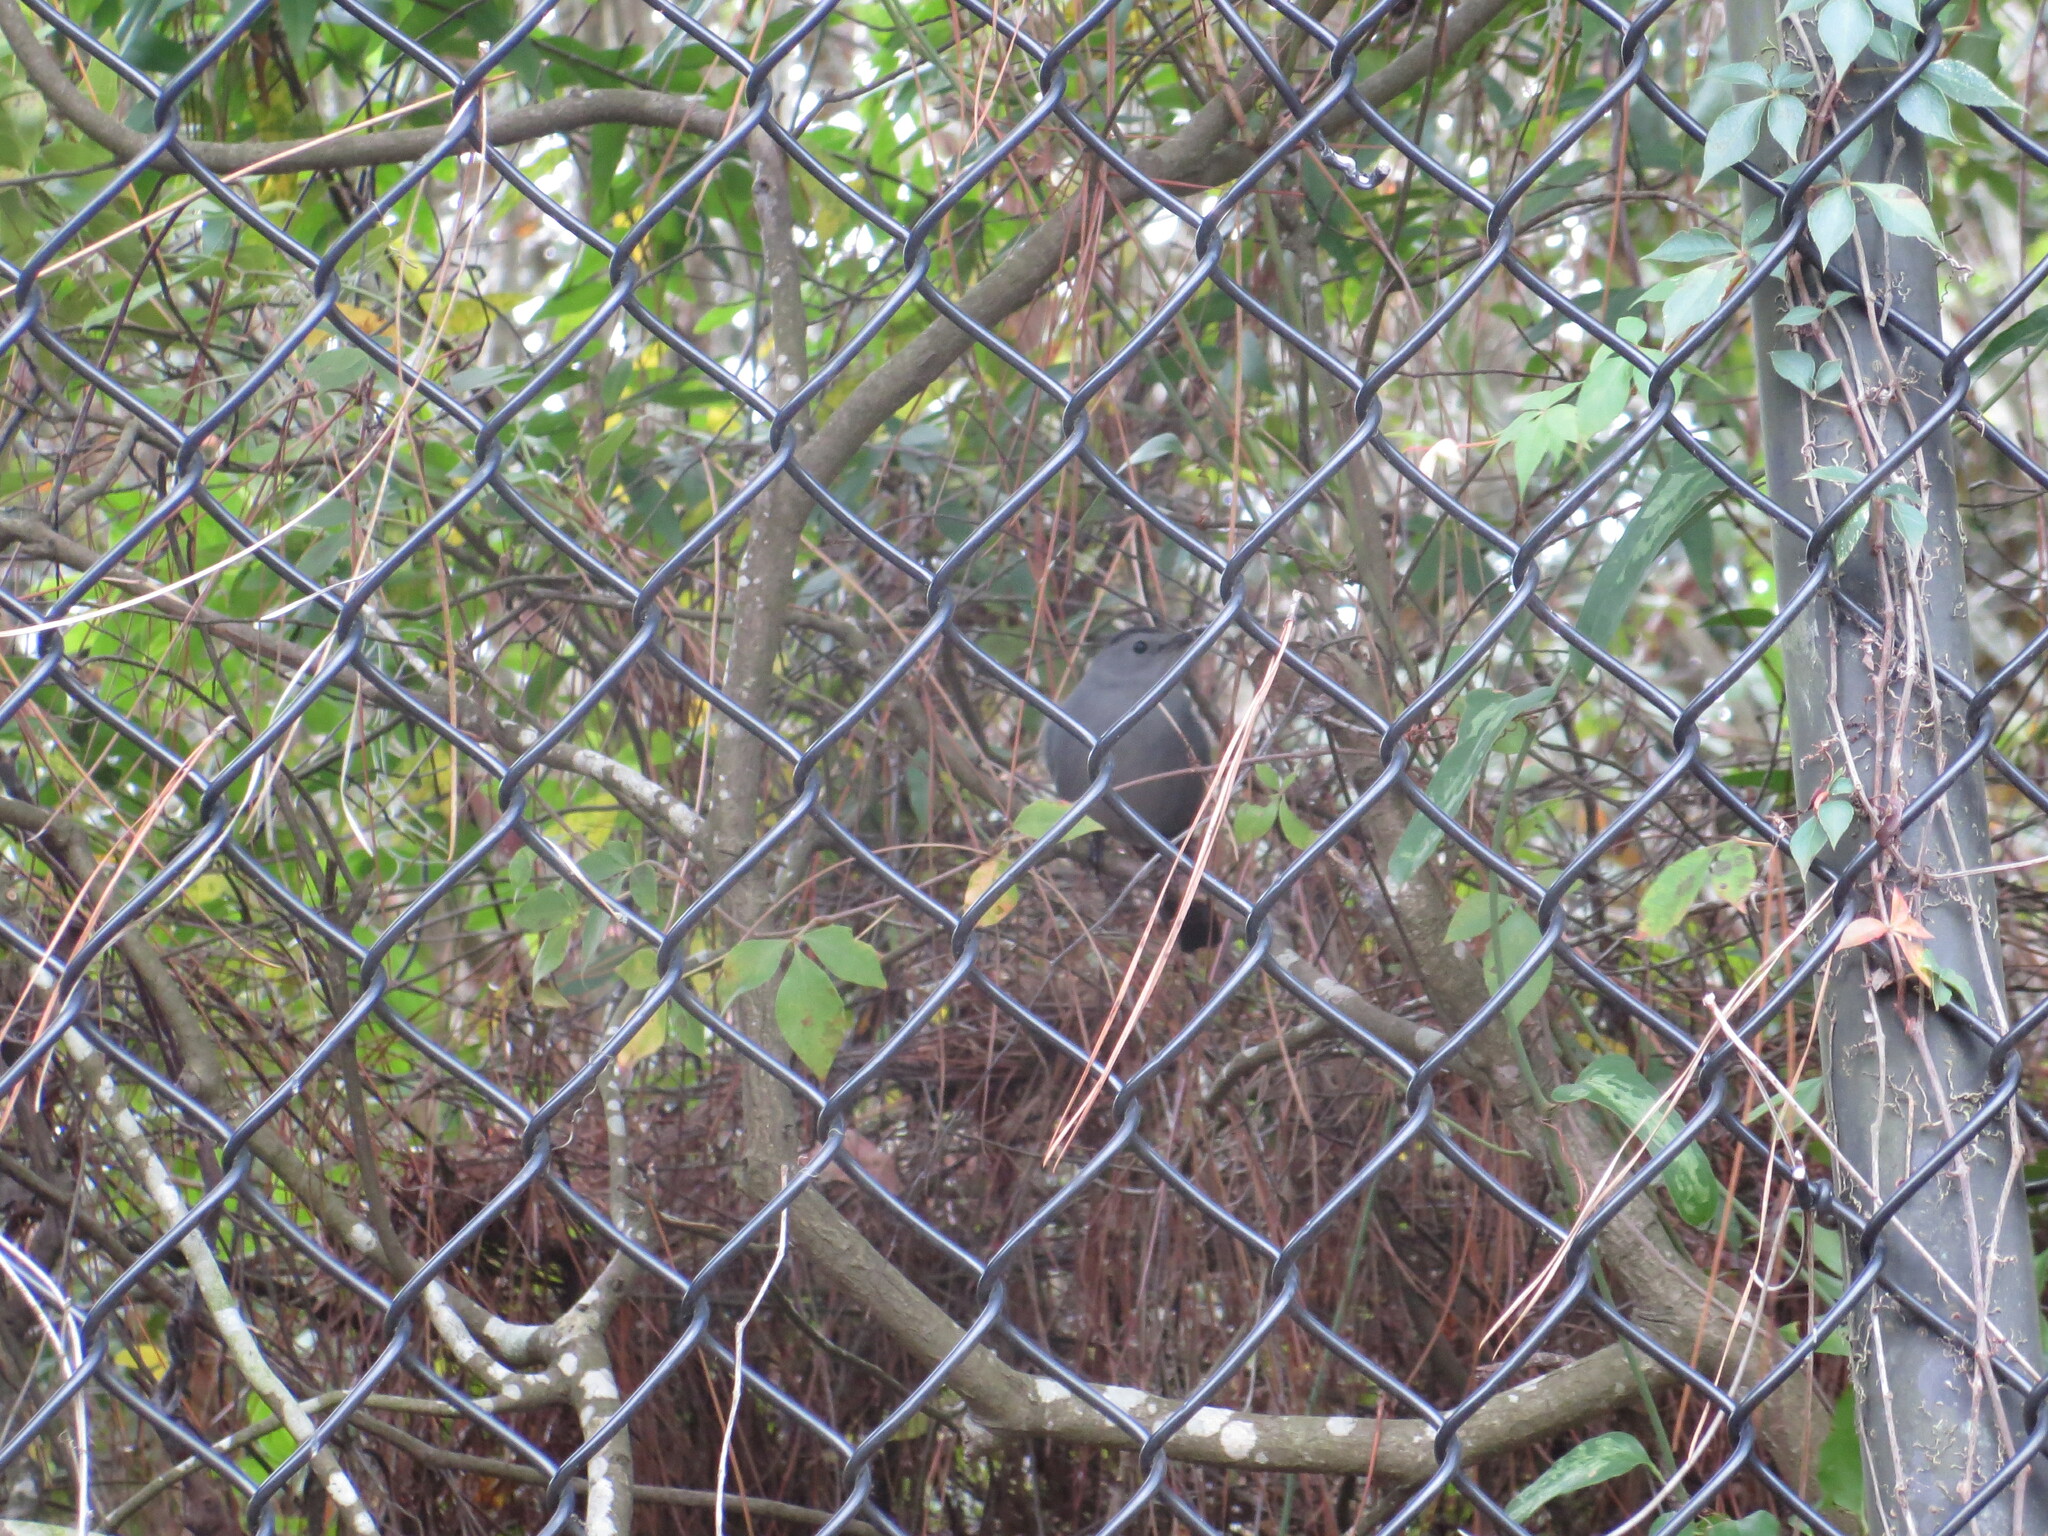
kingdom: Animalia
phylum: Chordata
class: Aves
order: Passeriformes
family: Mimidae
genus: Dumetella
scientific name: Dumetella carolinensis
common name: Gray catbird
